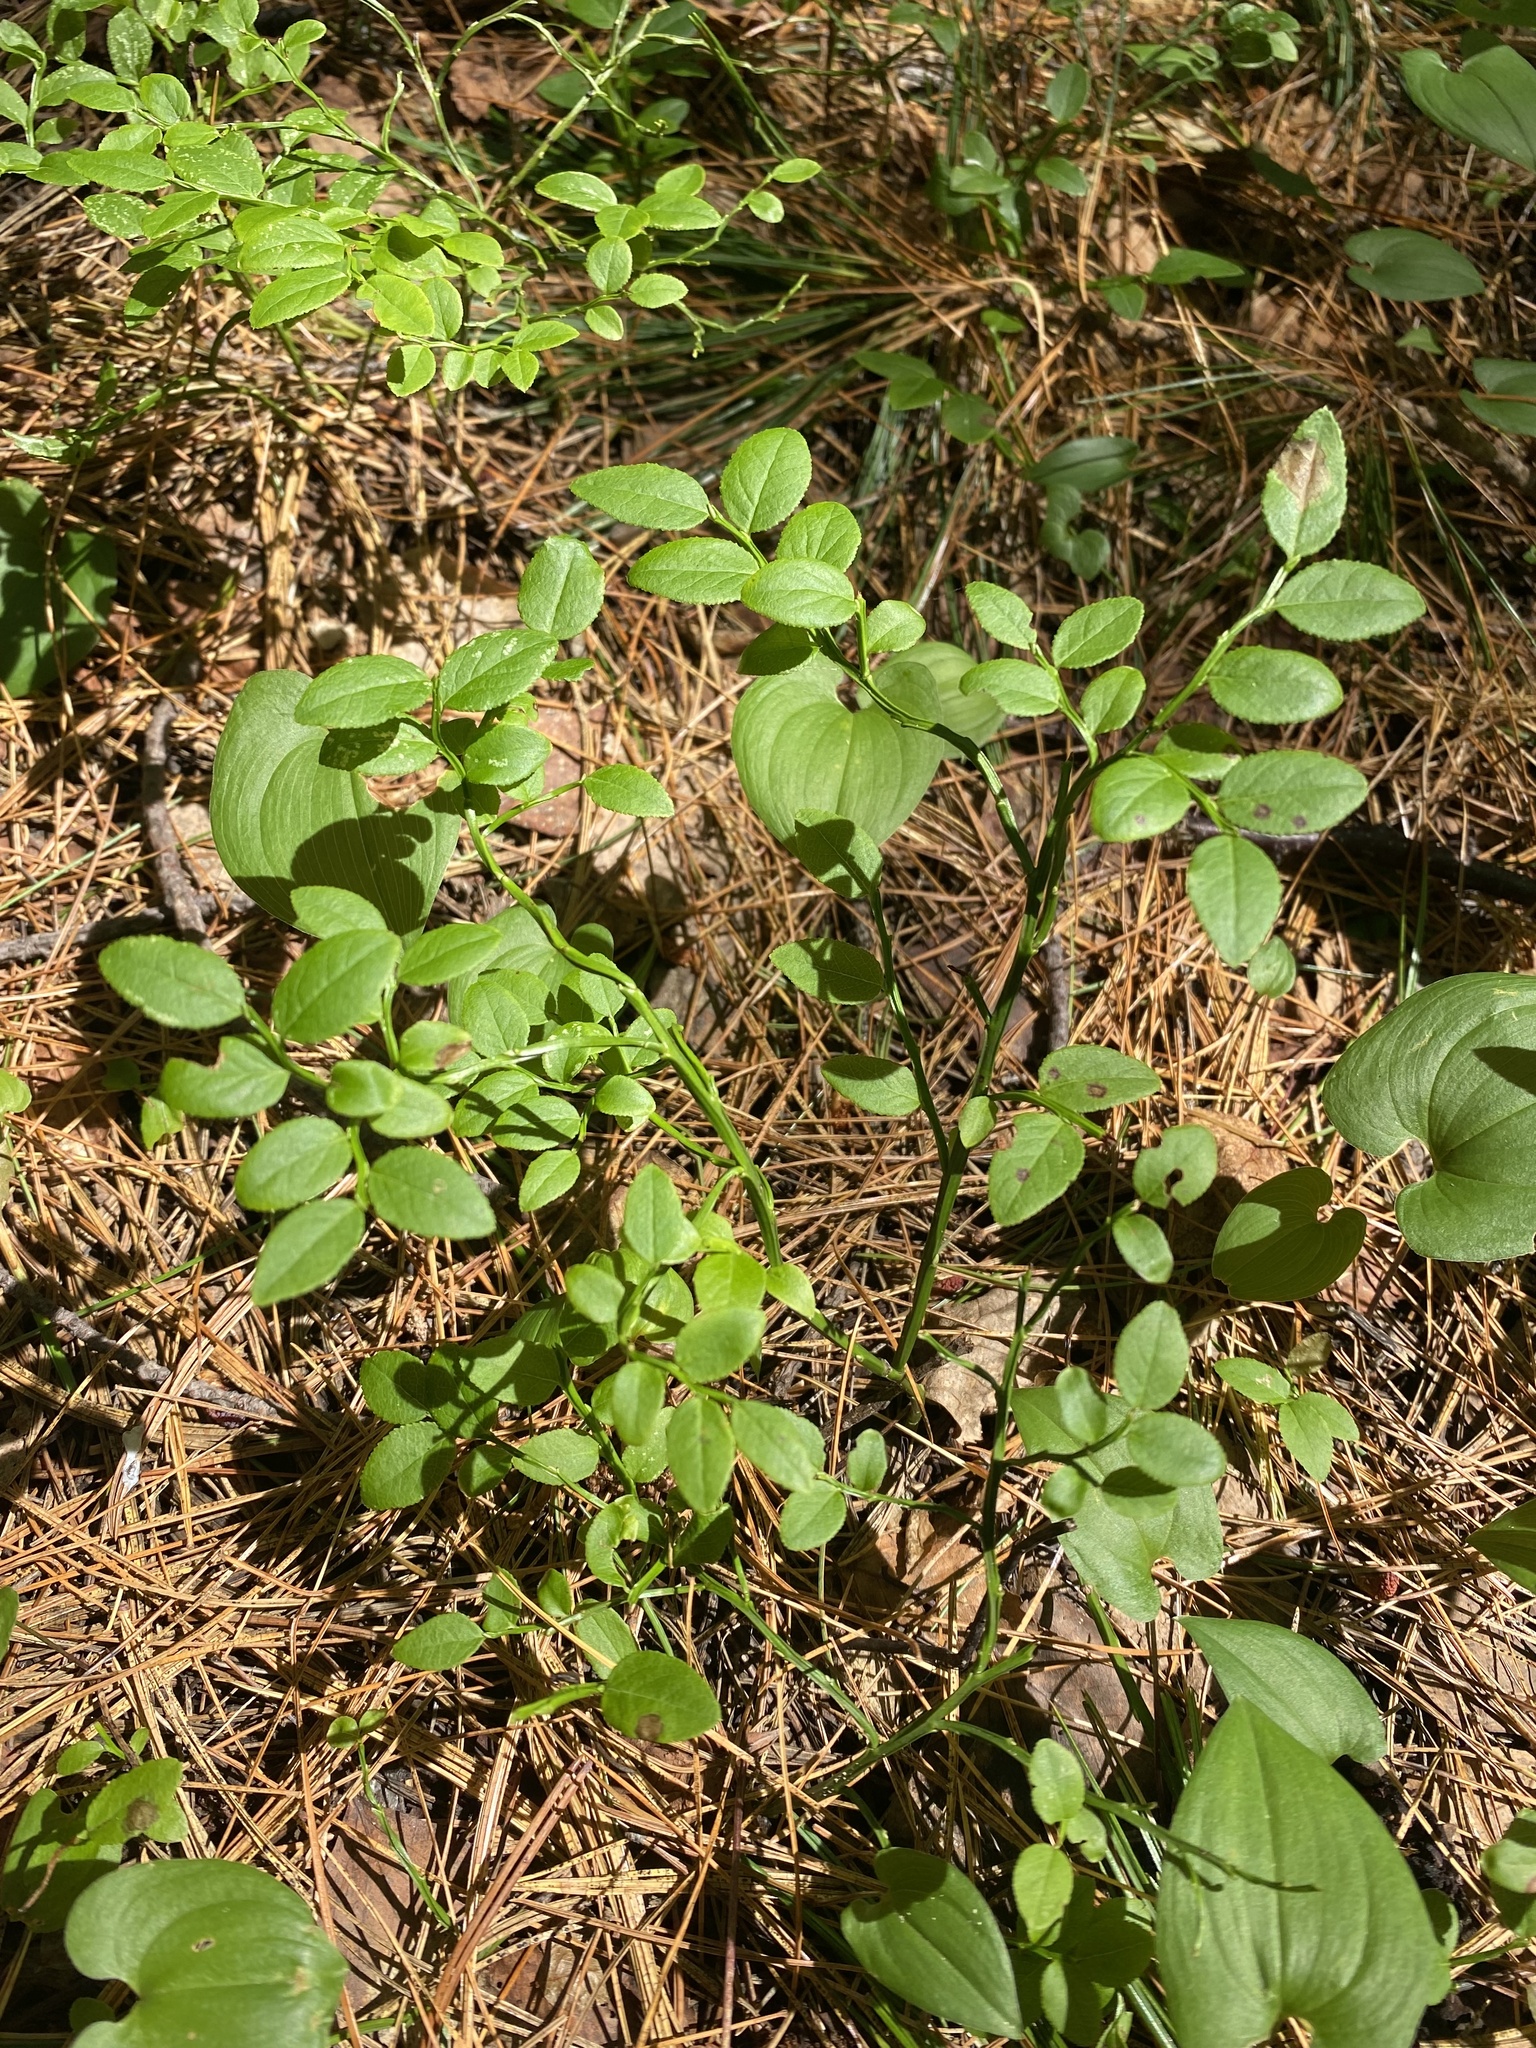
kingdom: Plantae
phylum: Tracheophyta
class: Magnoliopsida
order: Ericales
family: Ericaceae
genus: Vaccinium
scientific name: Vaccinium myrtillus
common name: Bilberry
